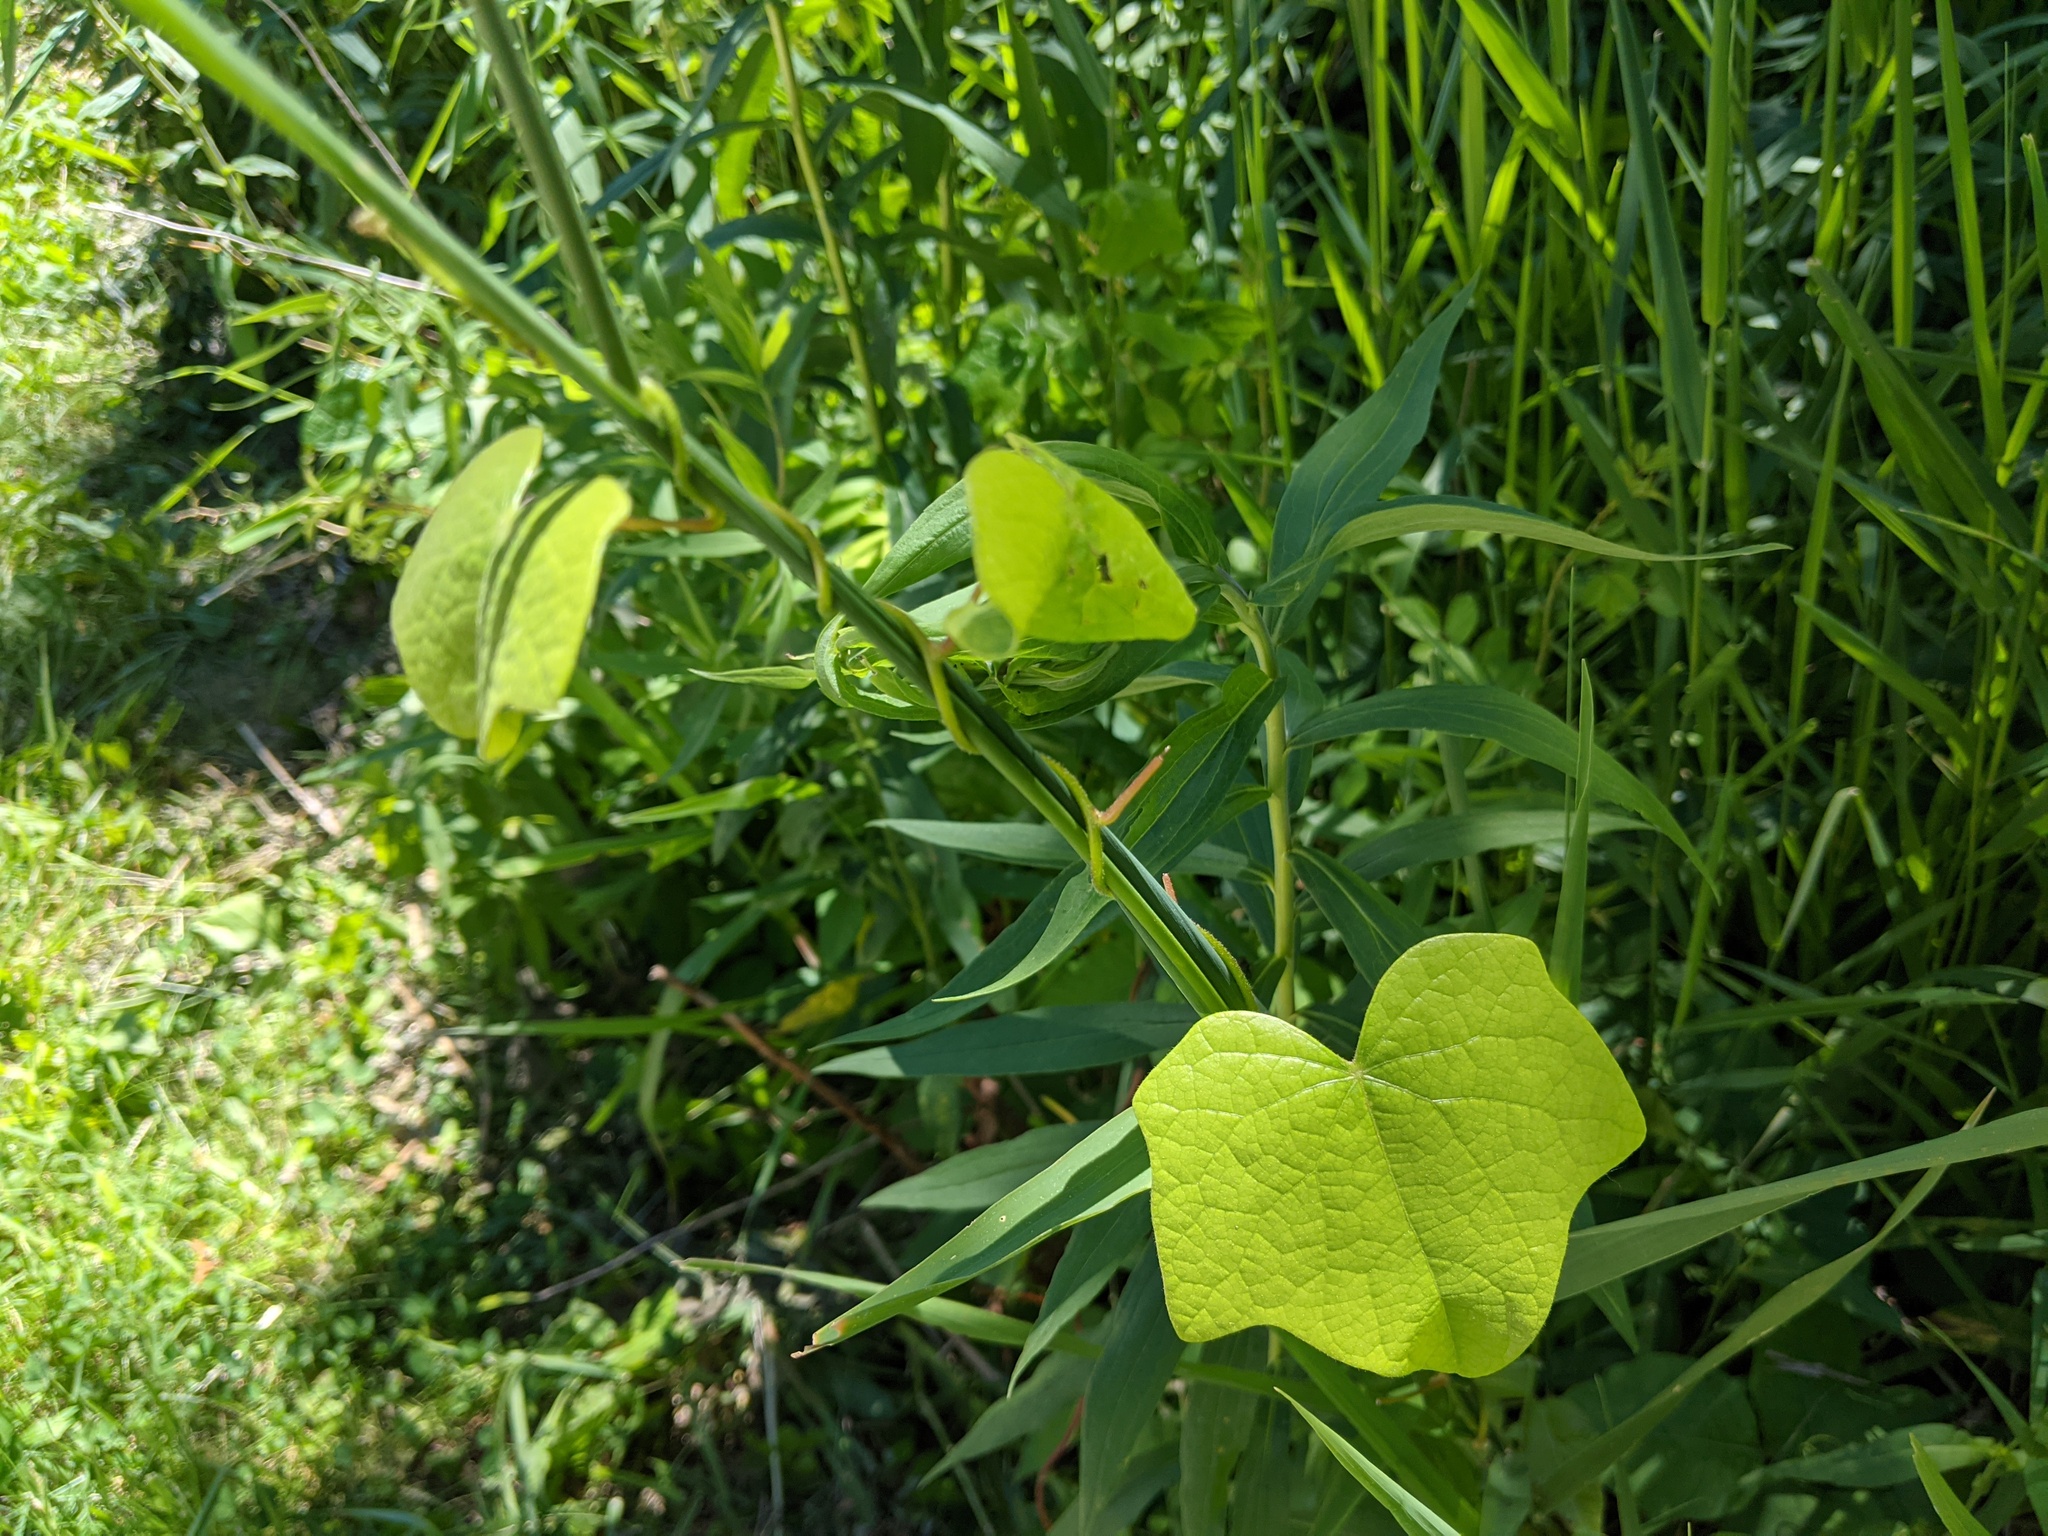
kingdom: Plantae
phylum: Tracheophyta
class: Magnoliopsida
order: Ranunculales
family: Menispermaceae
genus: Menispermum
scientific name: Menispermum canadense
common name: Moonseed
